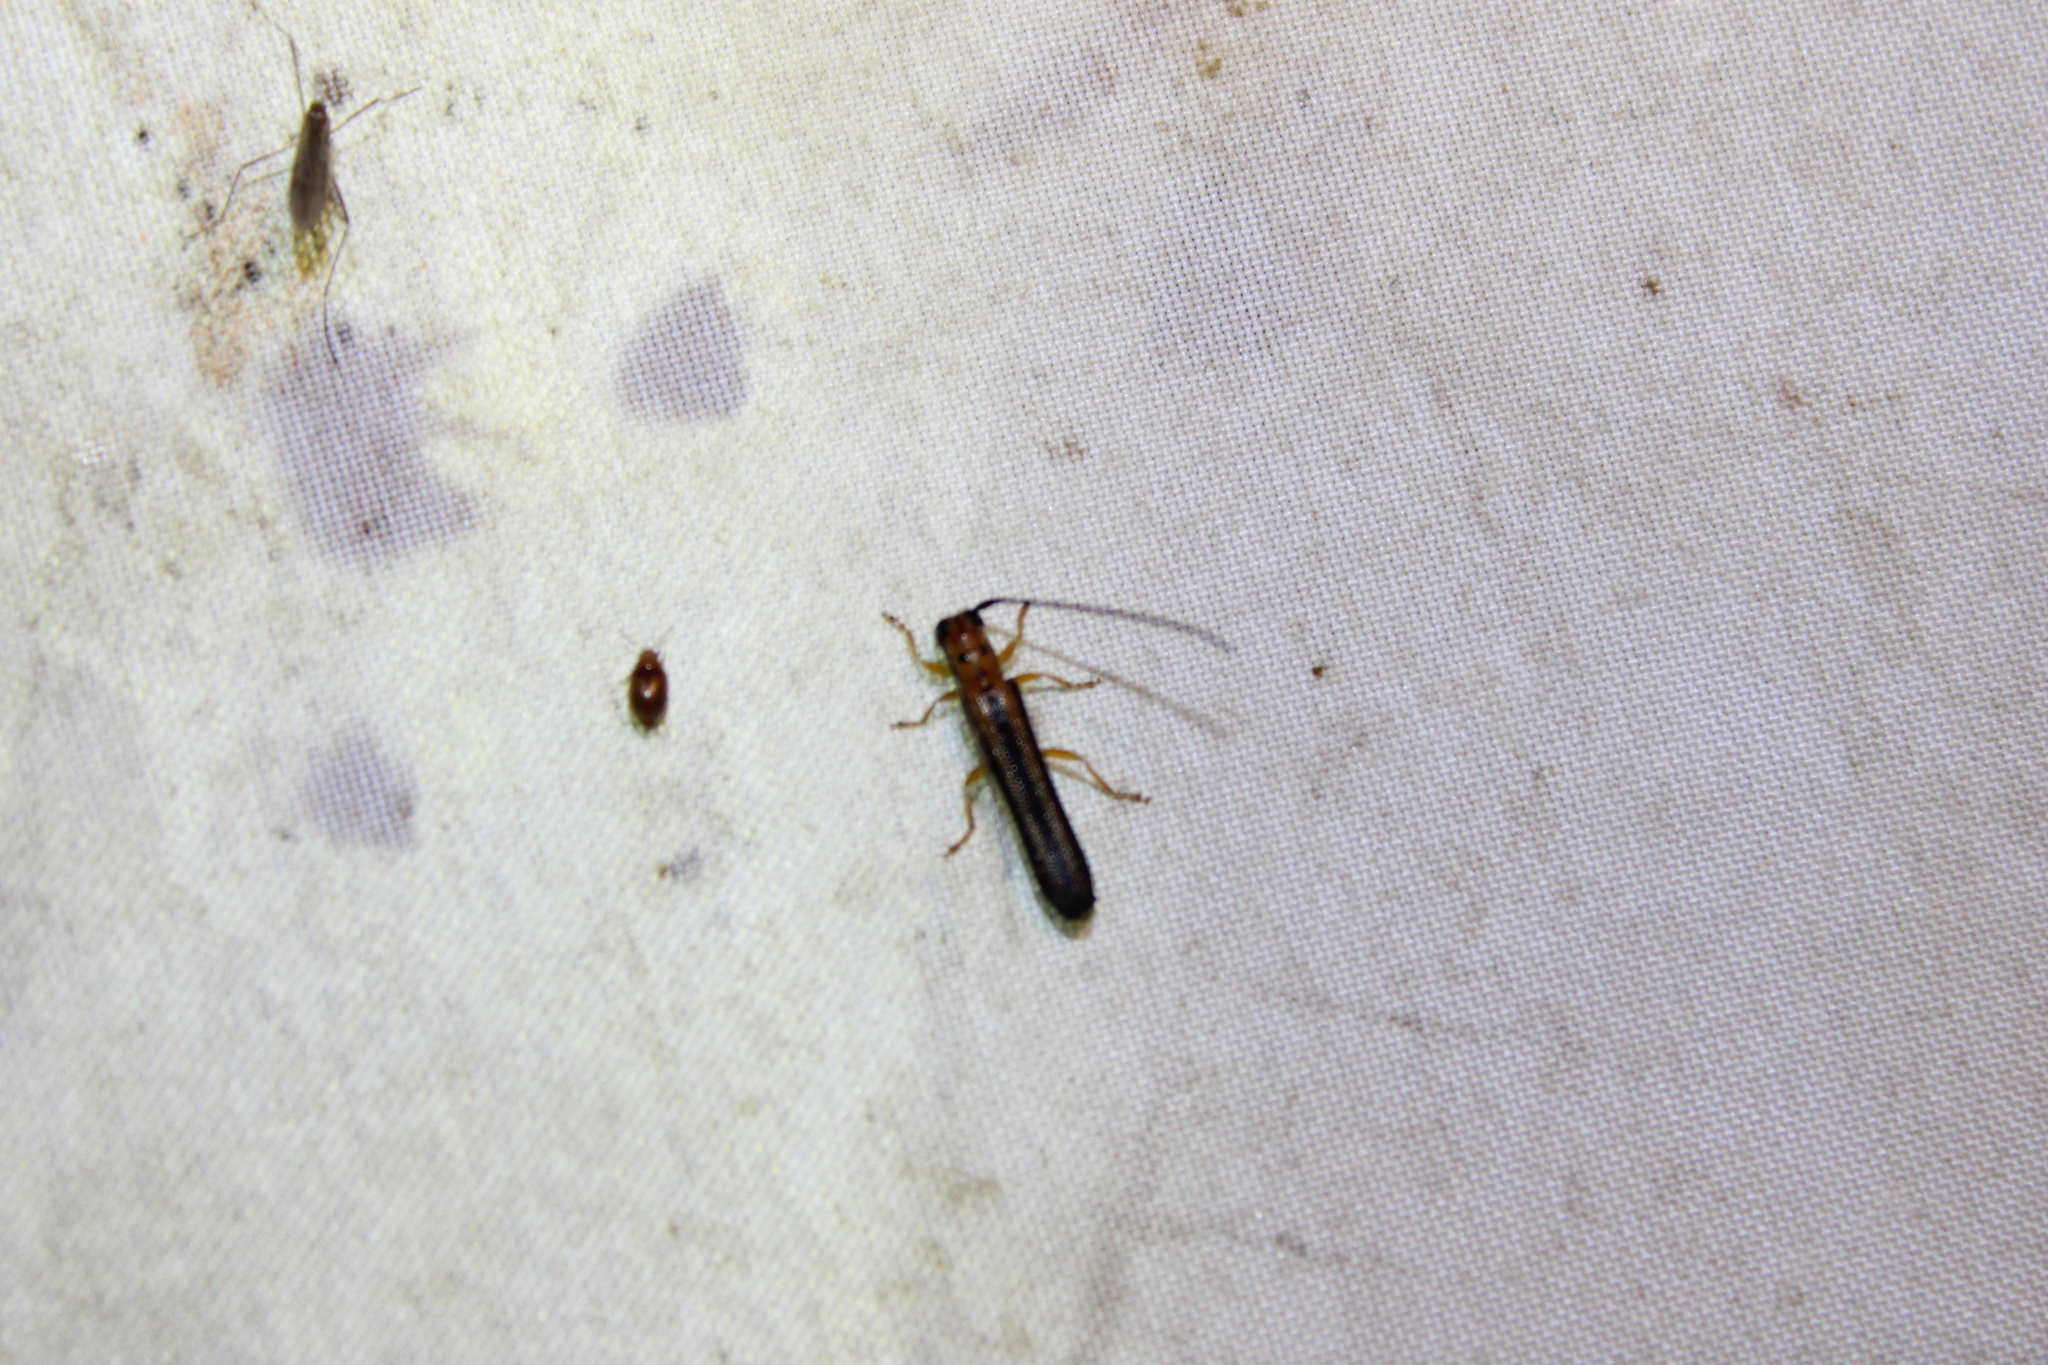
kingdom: Animalia
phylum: Arthropoda
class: Insecta
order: Coleoptera
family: Cerambycidae
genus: Oberea
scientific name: Oberea tripunctata
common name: Dogwood twig borer
